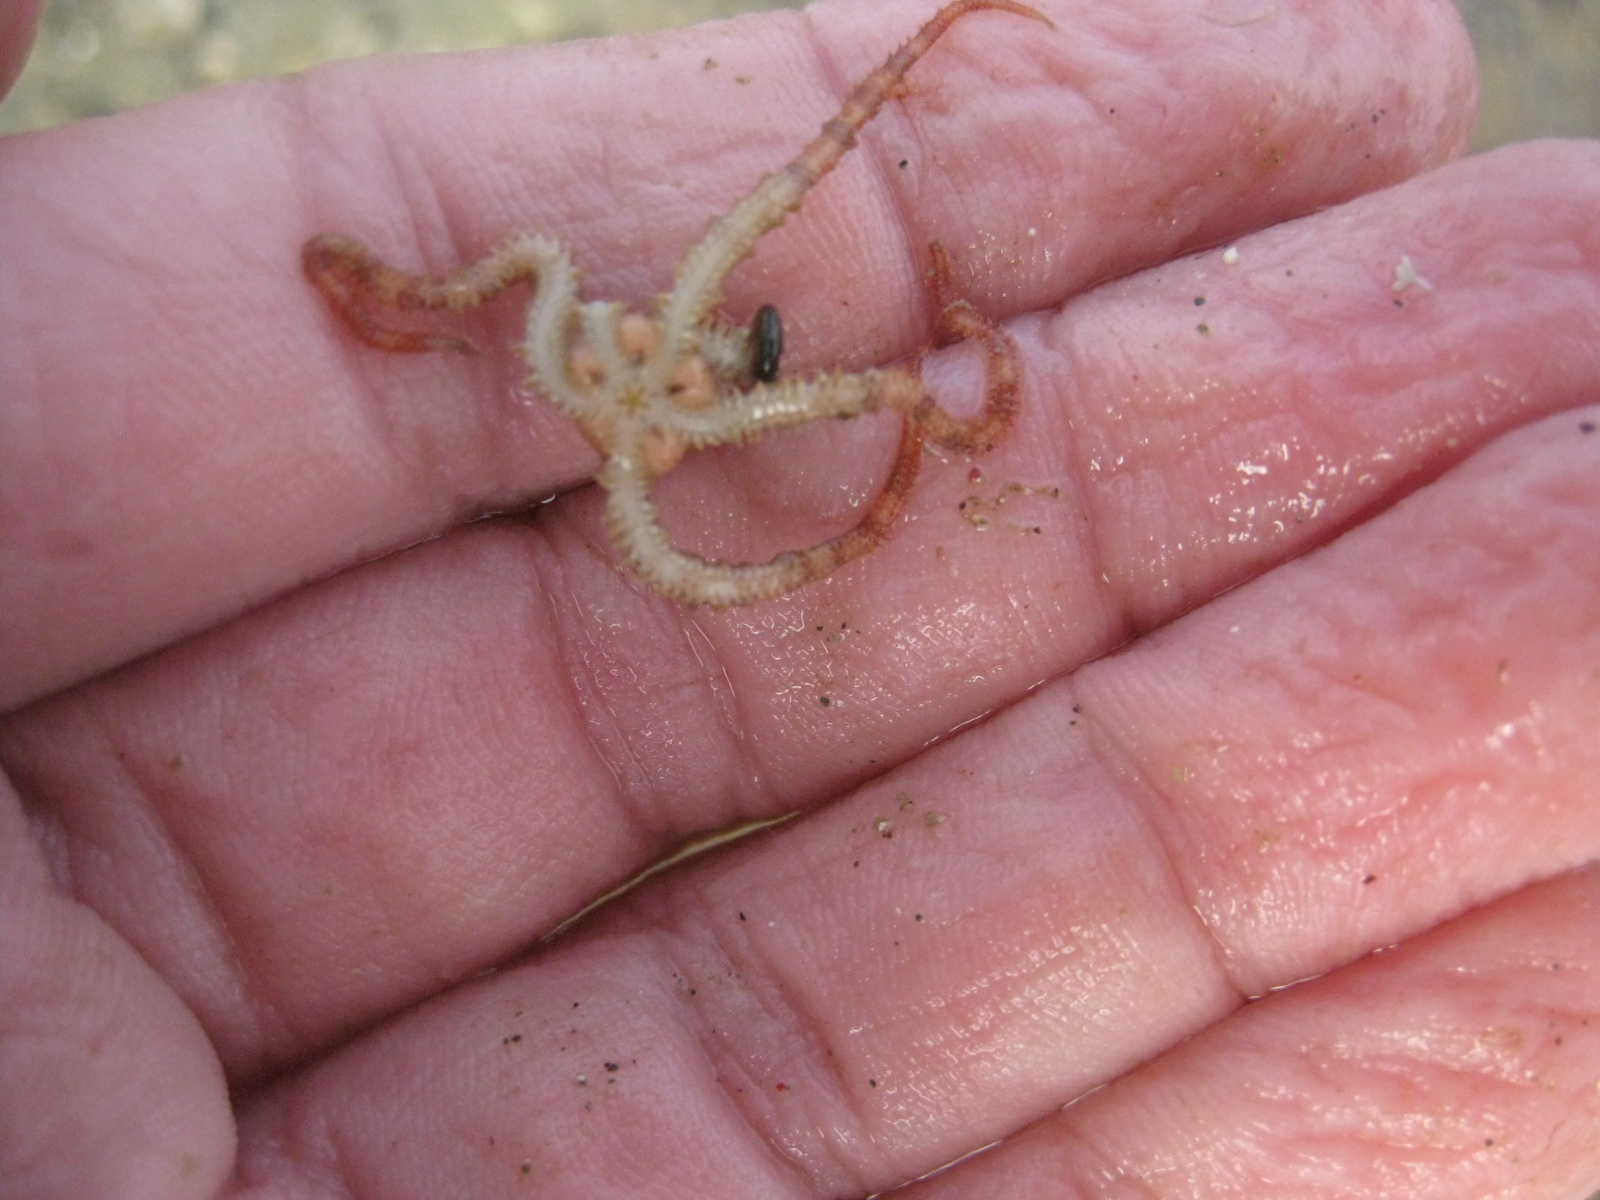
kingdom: Animalia
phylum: Echinodermata
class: Ophiuroidea
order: Amphilepidida
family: Ophiactidae
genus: Ophiactis
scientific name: Ophiactis resiliens
